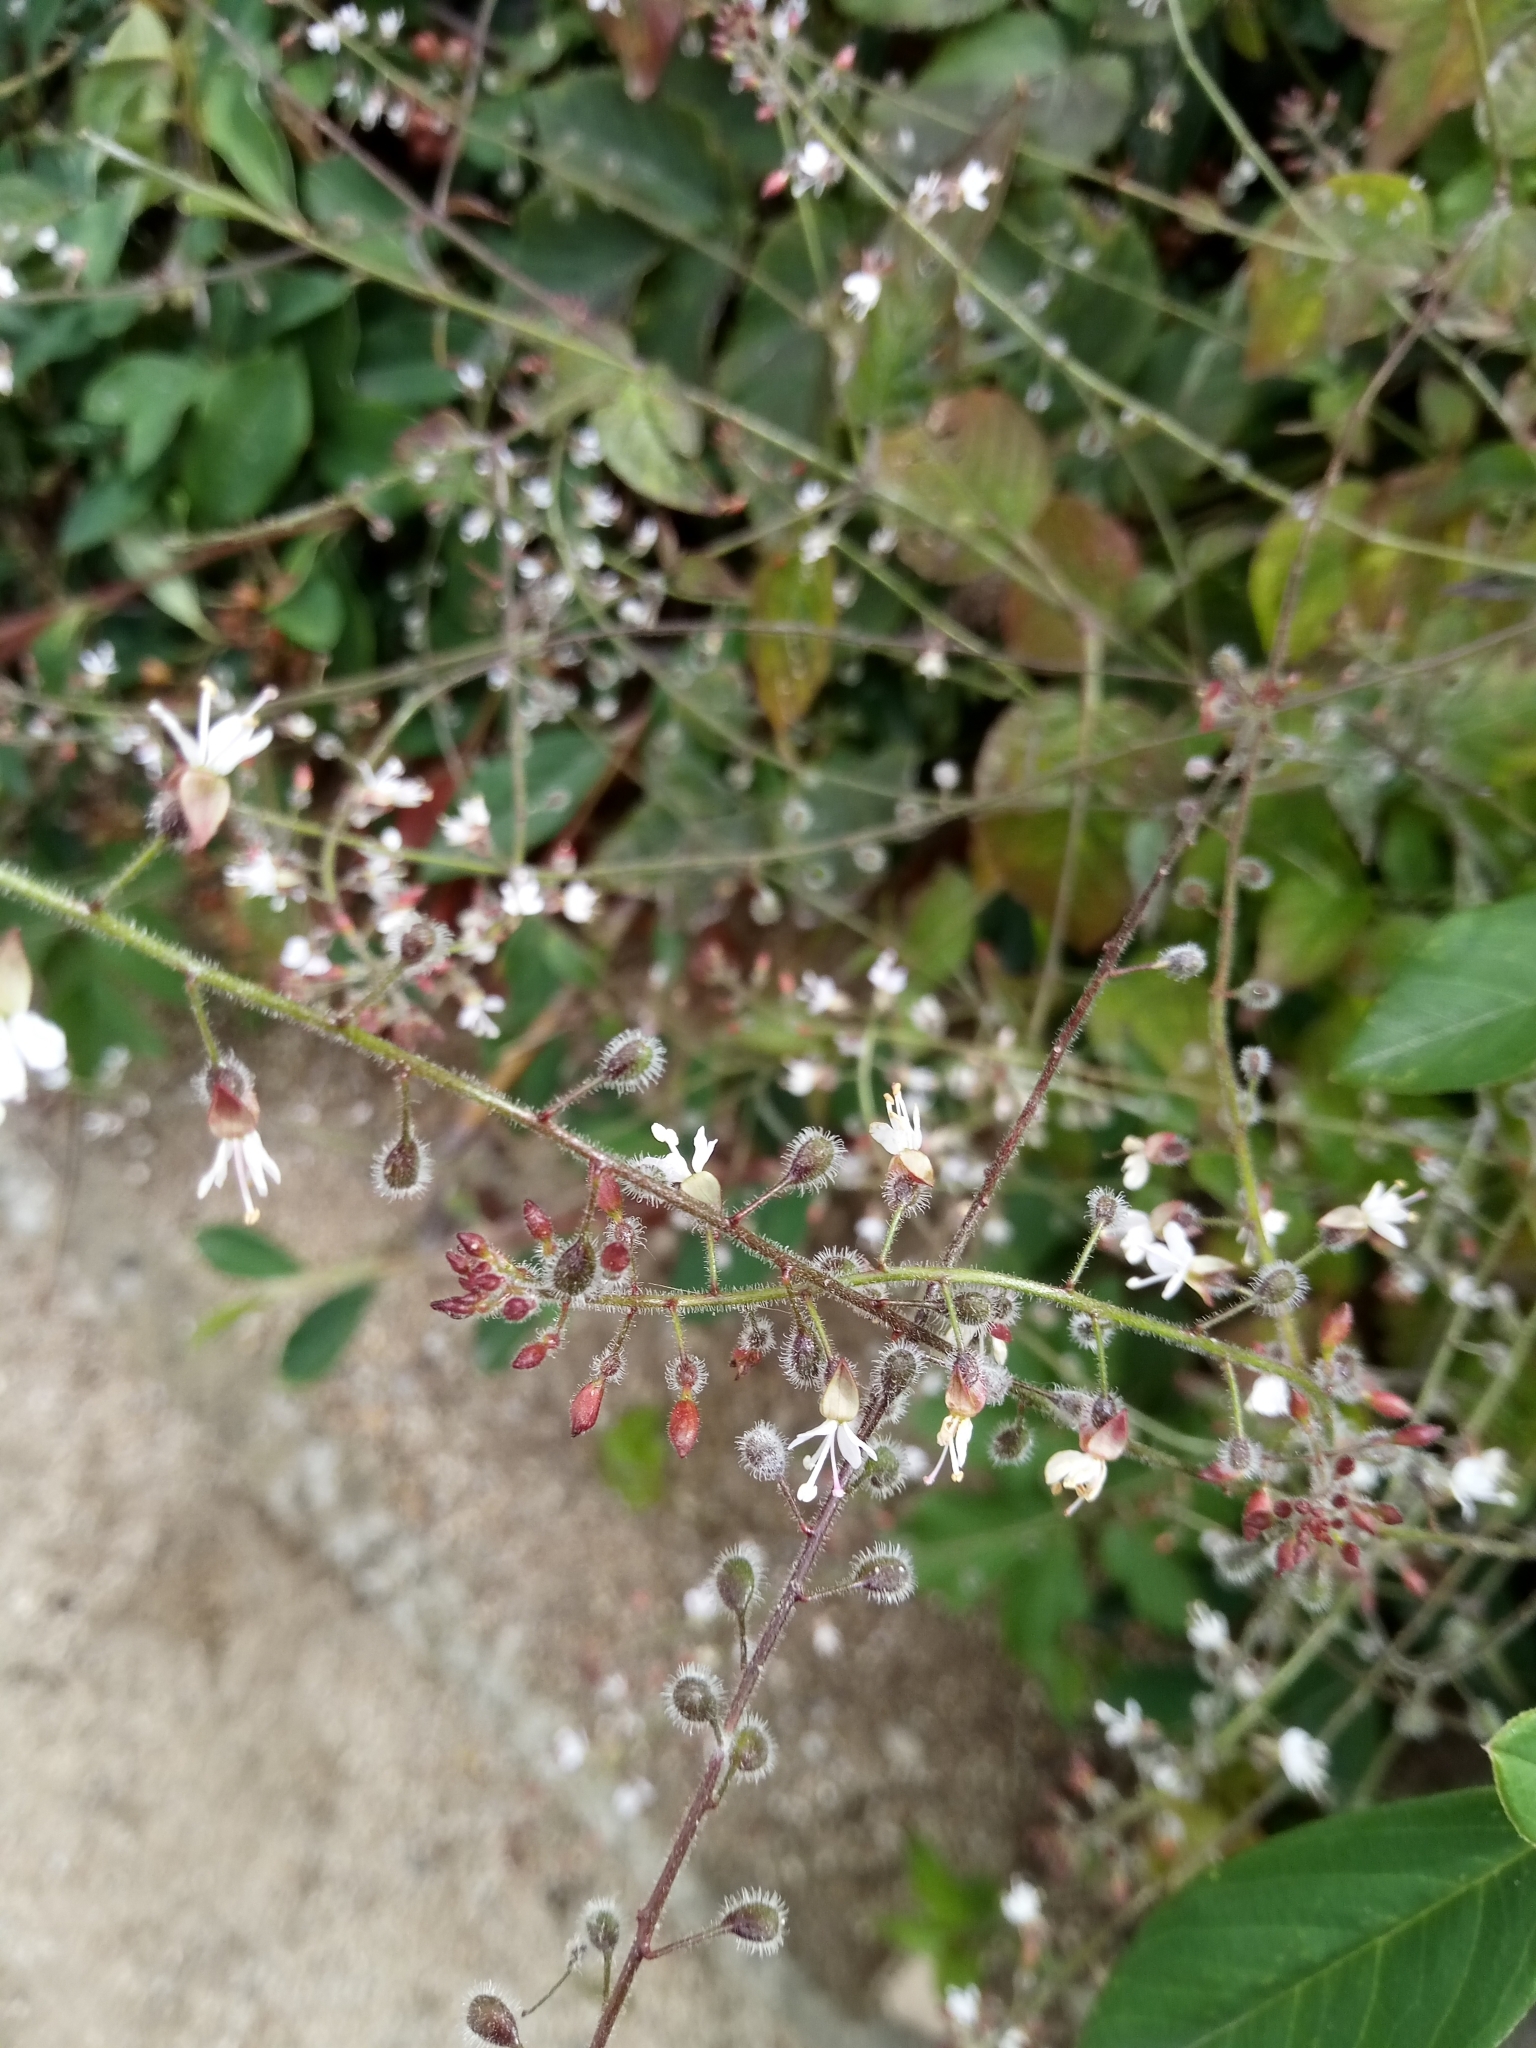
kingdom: Plantae
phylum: Tracheophyta
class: Magnoliopsida
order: Myrtales
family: Onagraceae
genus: Circaea
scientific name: Circaea lutetiana
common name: Enchanter's-nightshade
